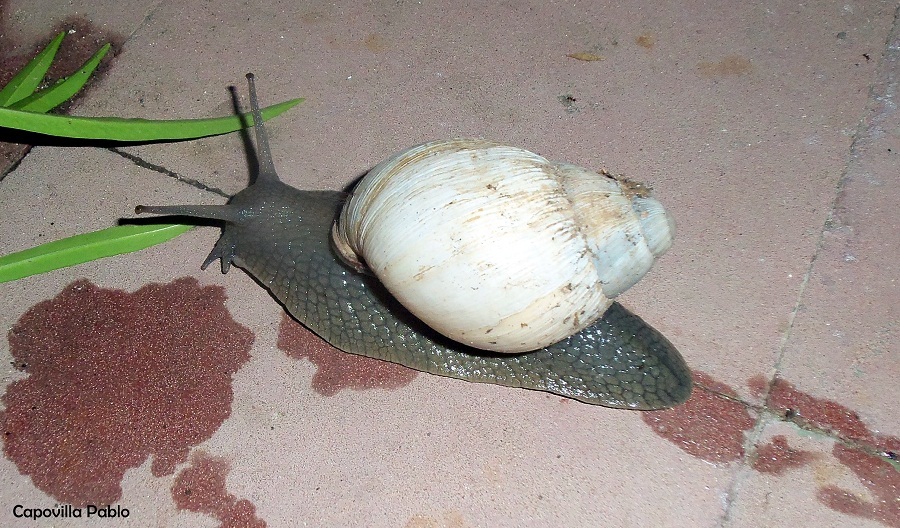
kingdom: Animalia
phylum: Mollusca
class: Gastropoda
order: Stylommatophora
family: Strophocheilidae
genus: Megalobulimus
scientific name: Megalobulimus
